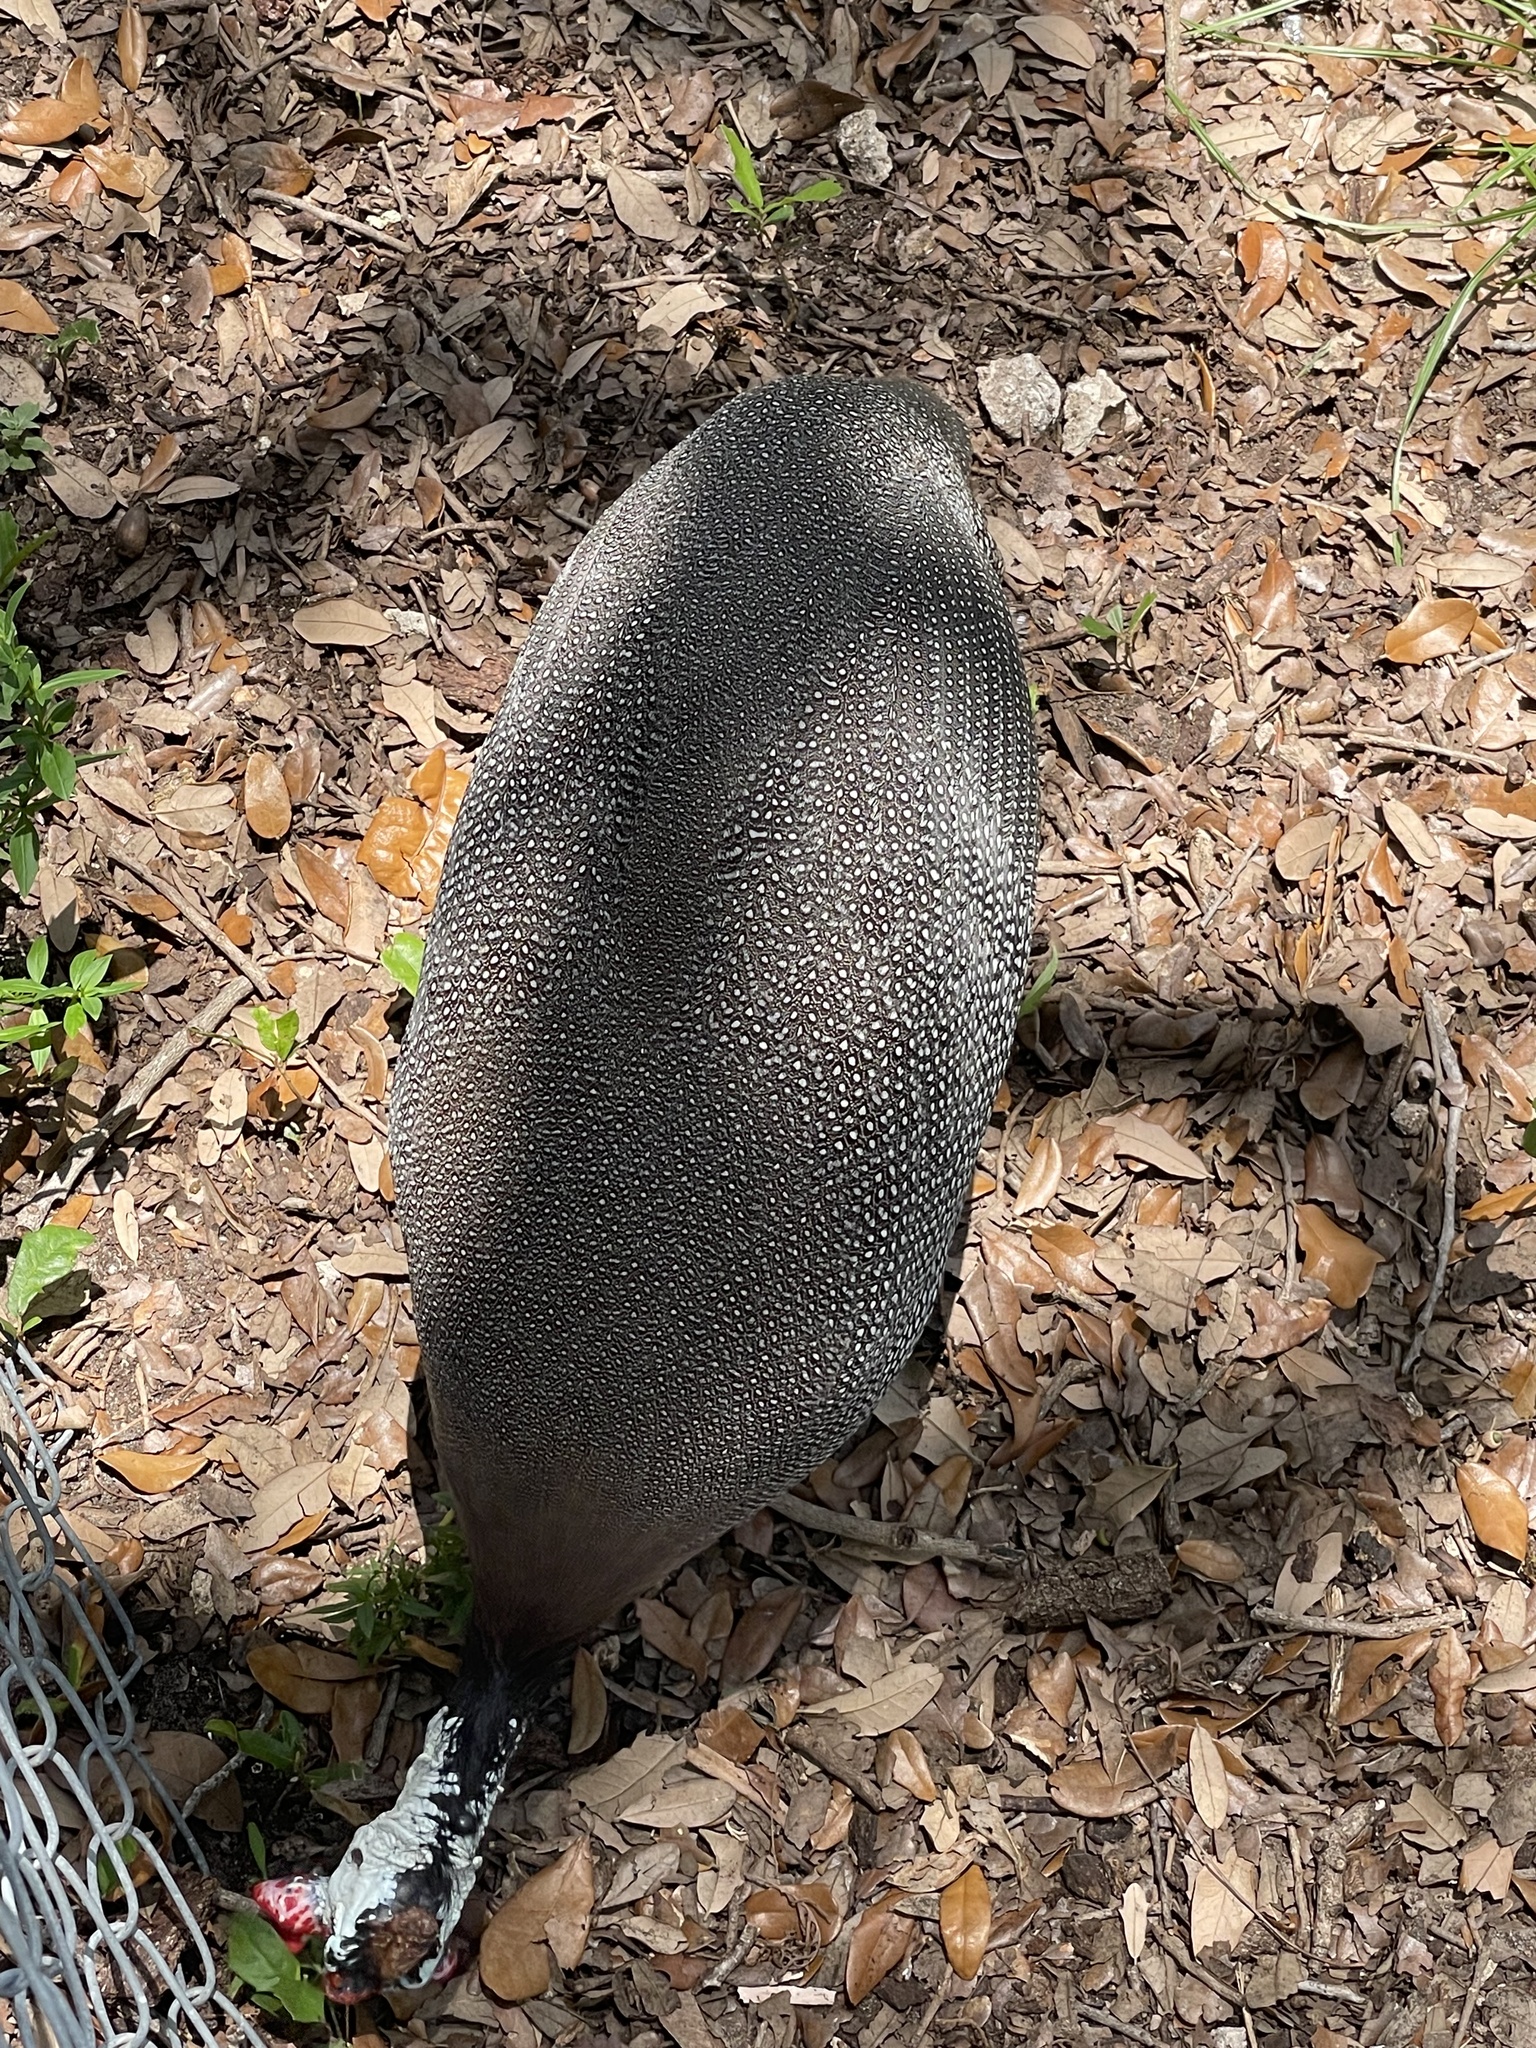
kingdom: Animalia
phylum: Chordata
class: Aves
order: Galliformes
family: Numididae
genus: Numida
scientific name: Numida meleagris
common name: Helmeted guineafowl
